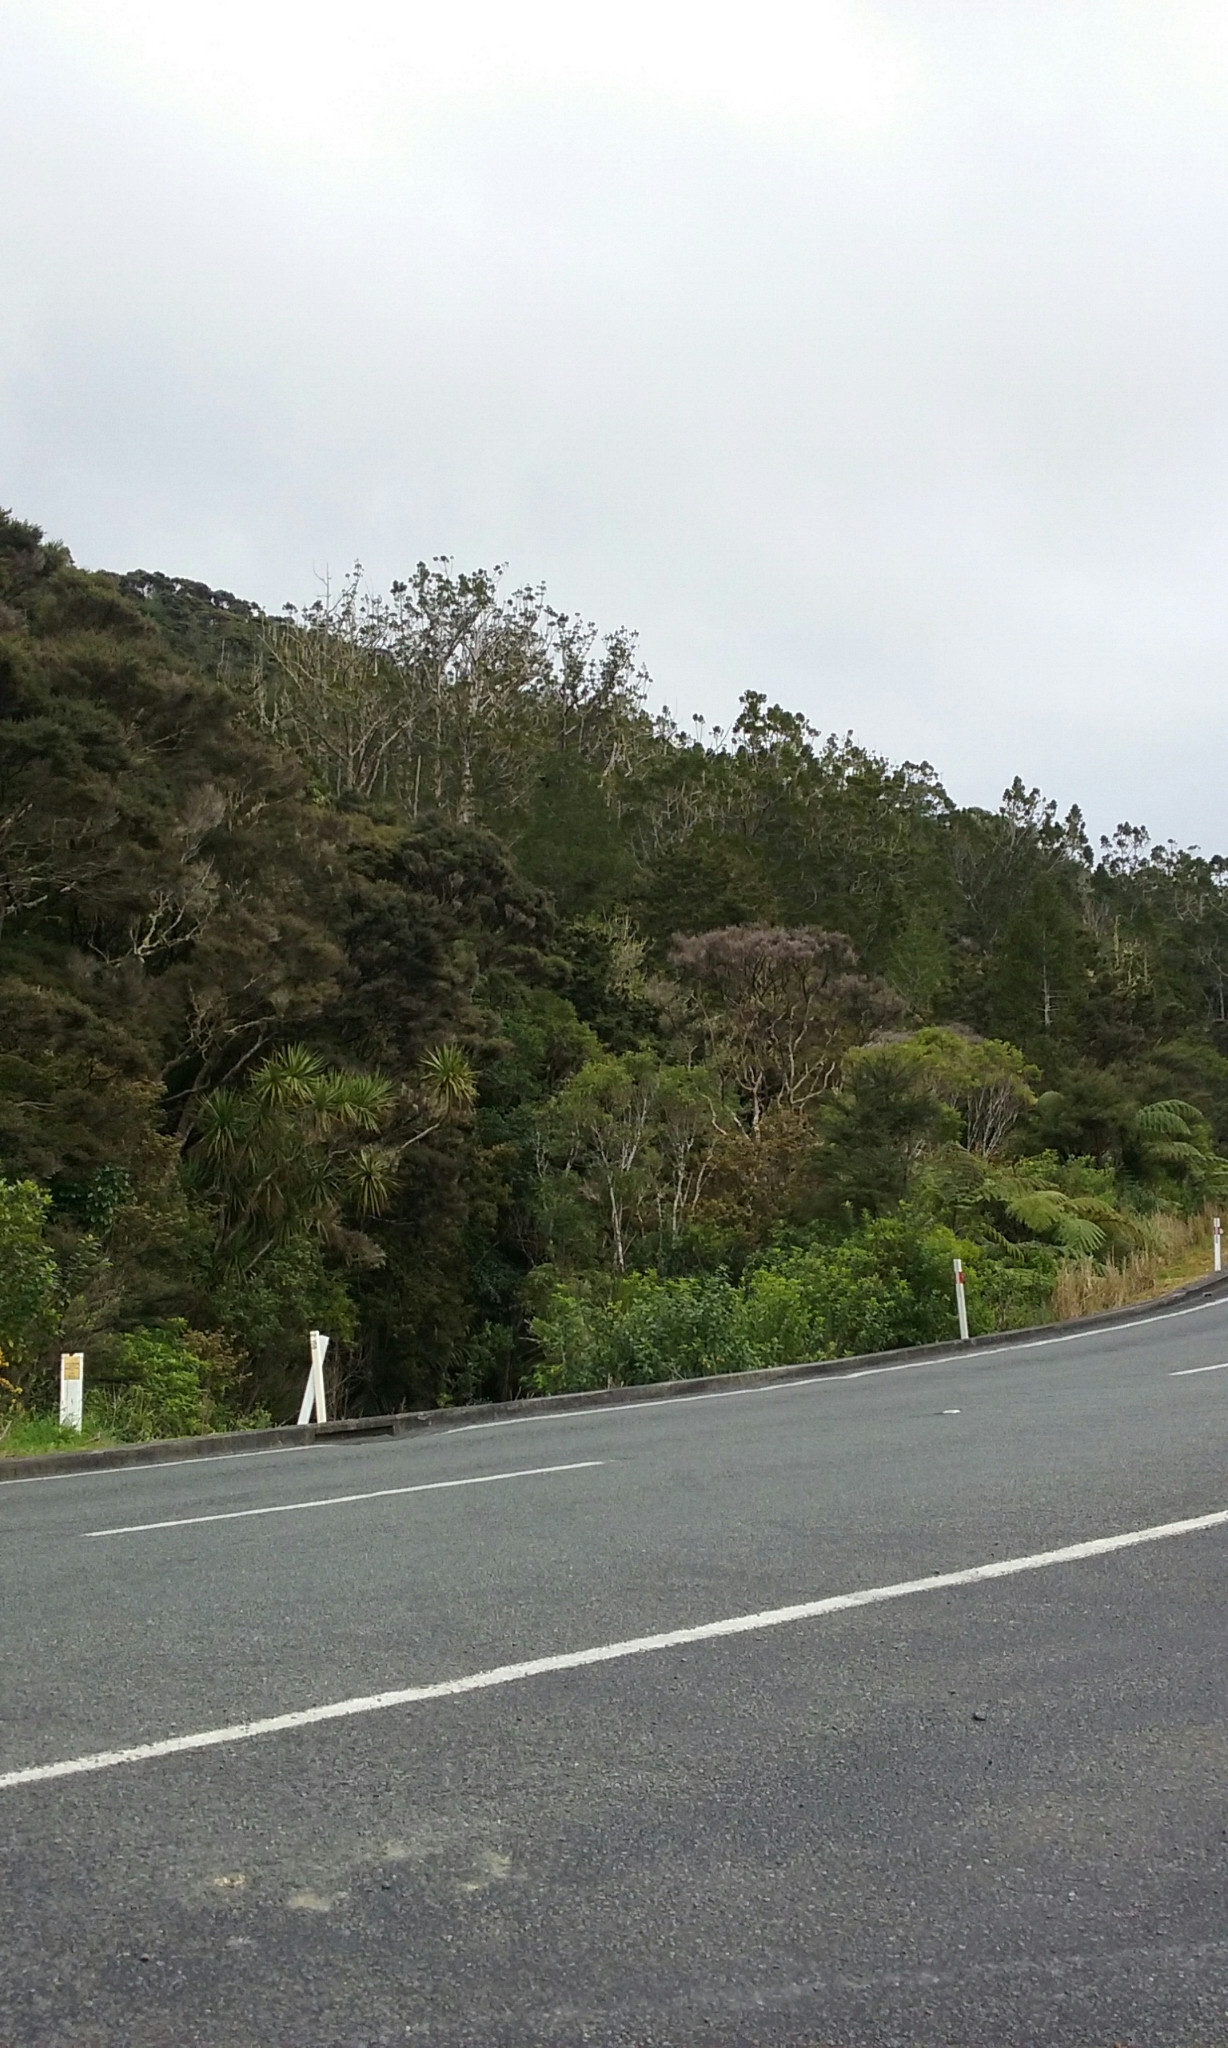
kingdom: Plantae
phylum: Tracheophyta
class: Pinopsida
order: Pinales
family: Araucariaceae
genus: Agathis
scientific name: Agathis australis
